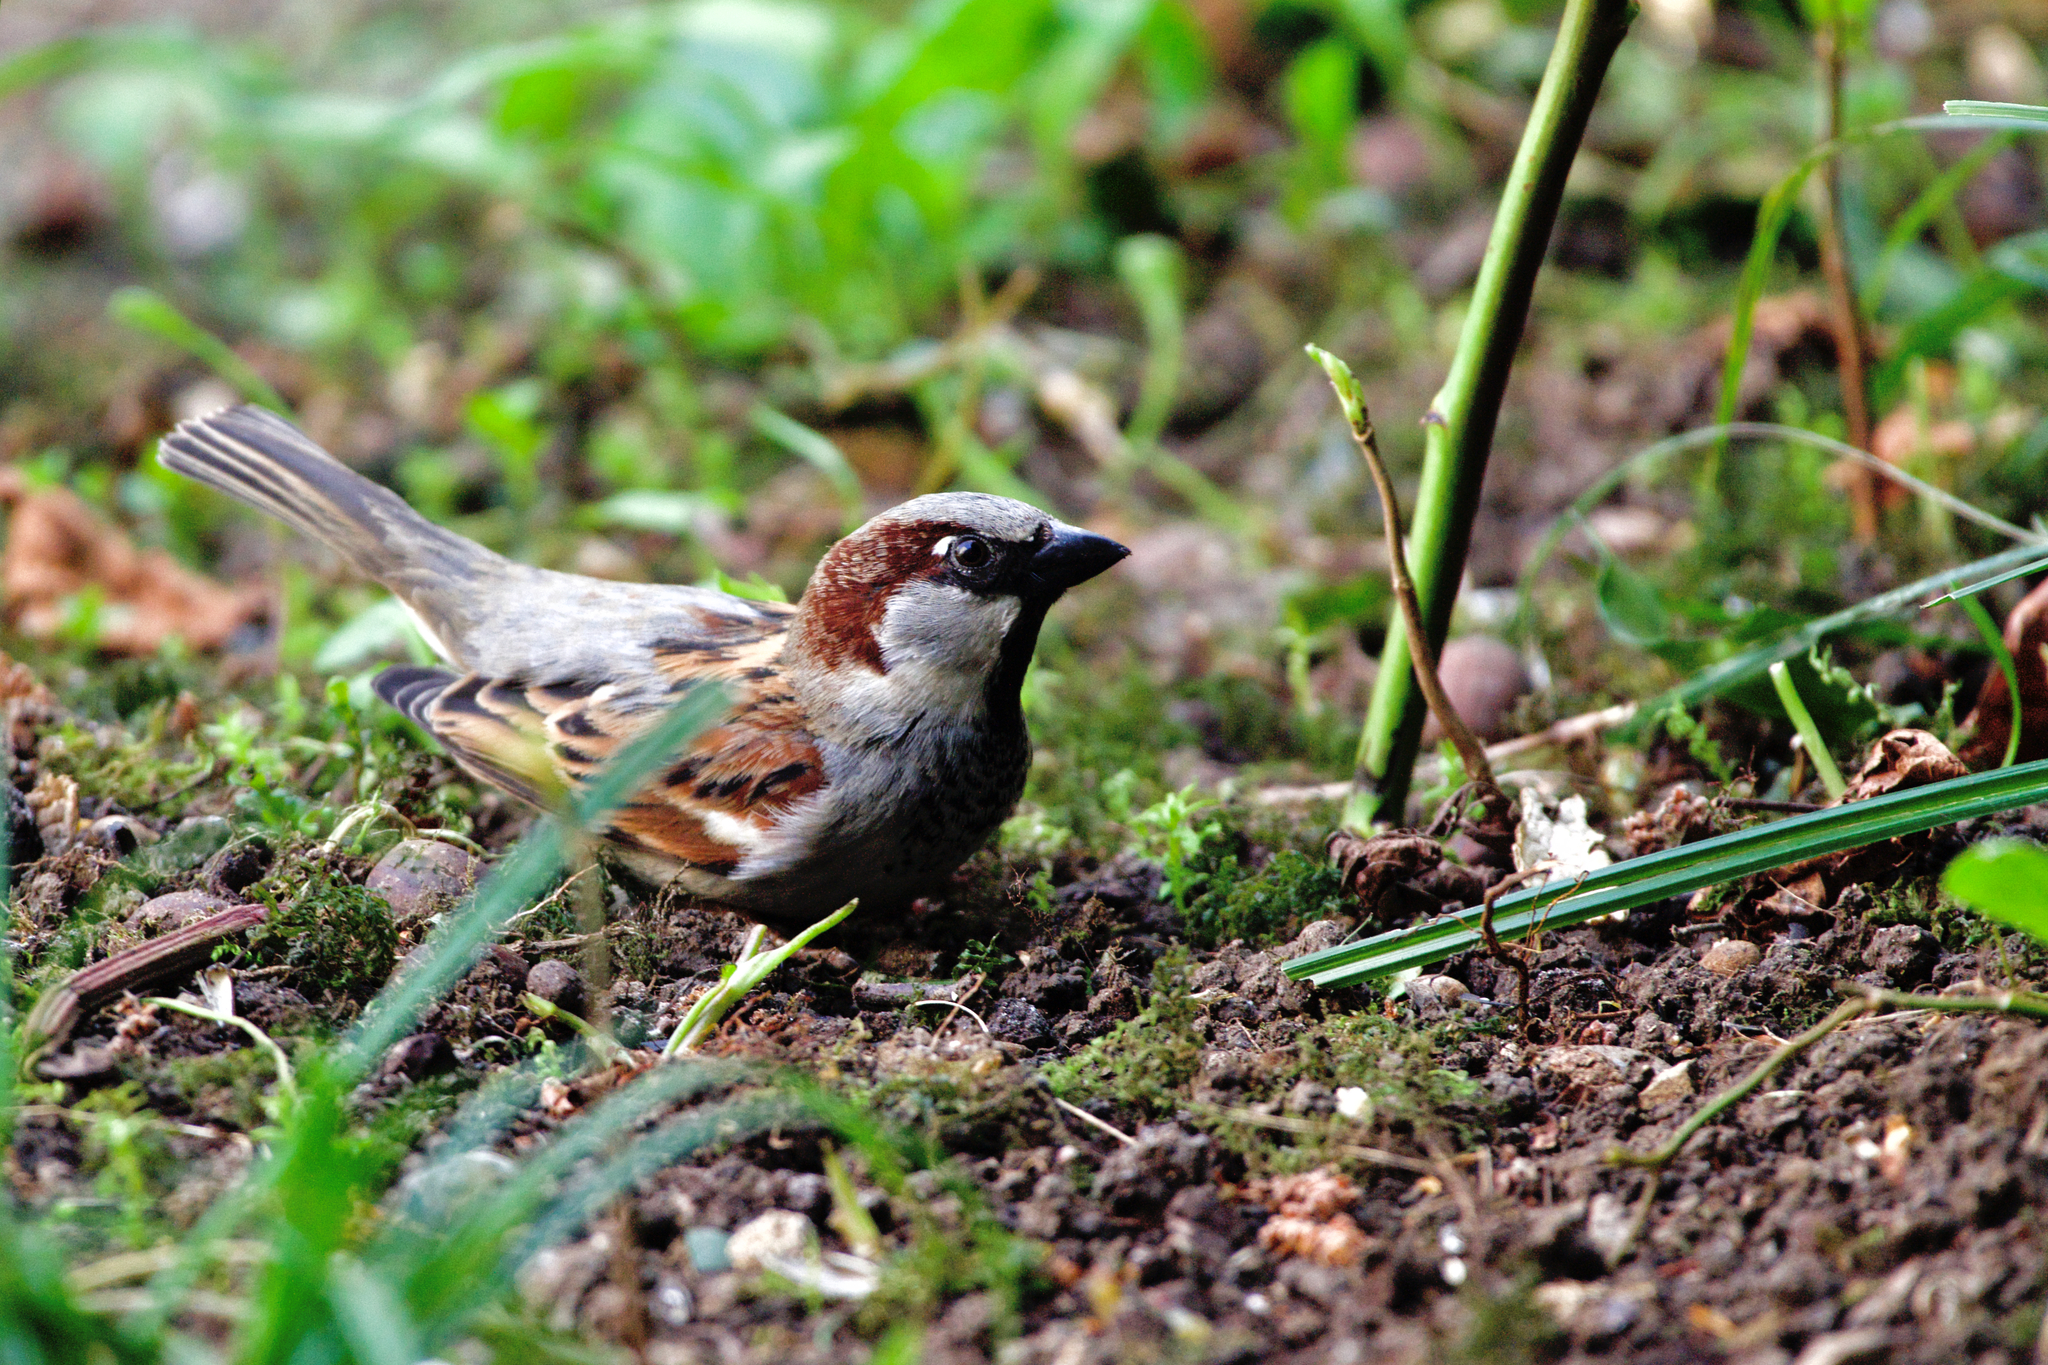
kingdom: Animalia
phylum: Chordata
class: Aves
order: Passeriformes
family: Passeridae
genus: Passer
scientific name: Passer domesticus
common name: House sparrow
